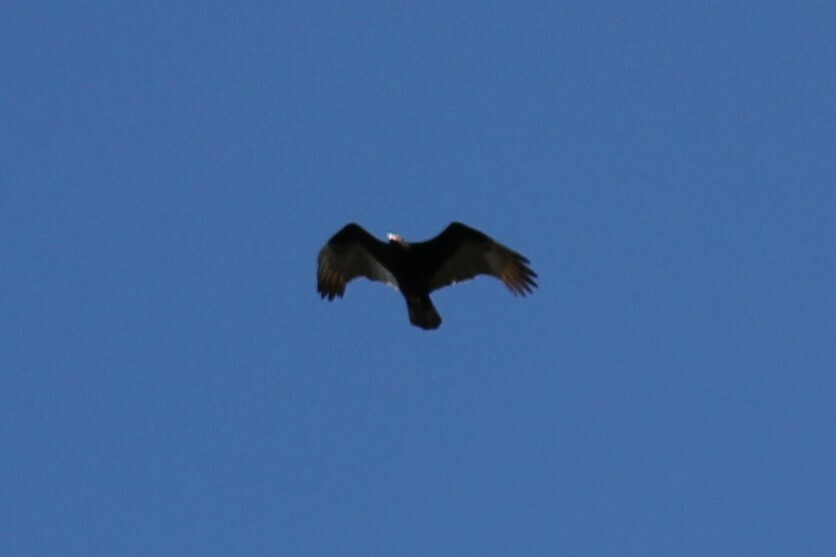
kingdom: Animalia
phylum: Chordata
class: Aves
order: Accipitriformes
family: Cathartidae
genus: Cathartes
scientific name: Cathartes aura
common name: Turkey vulture
